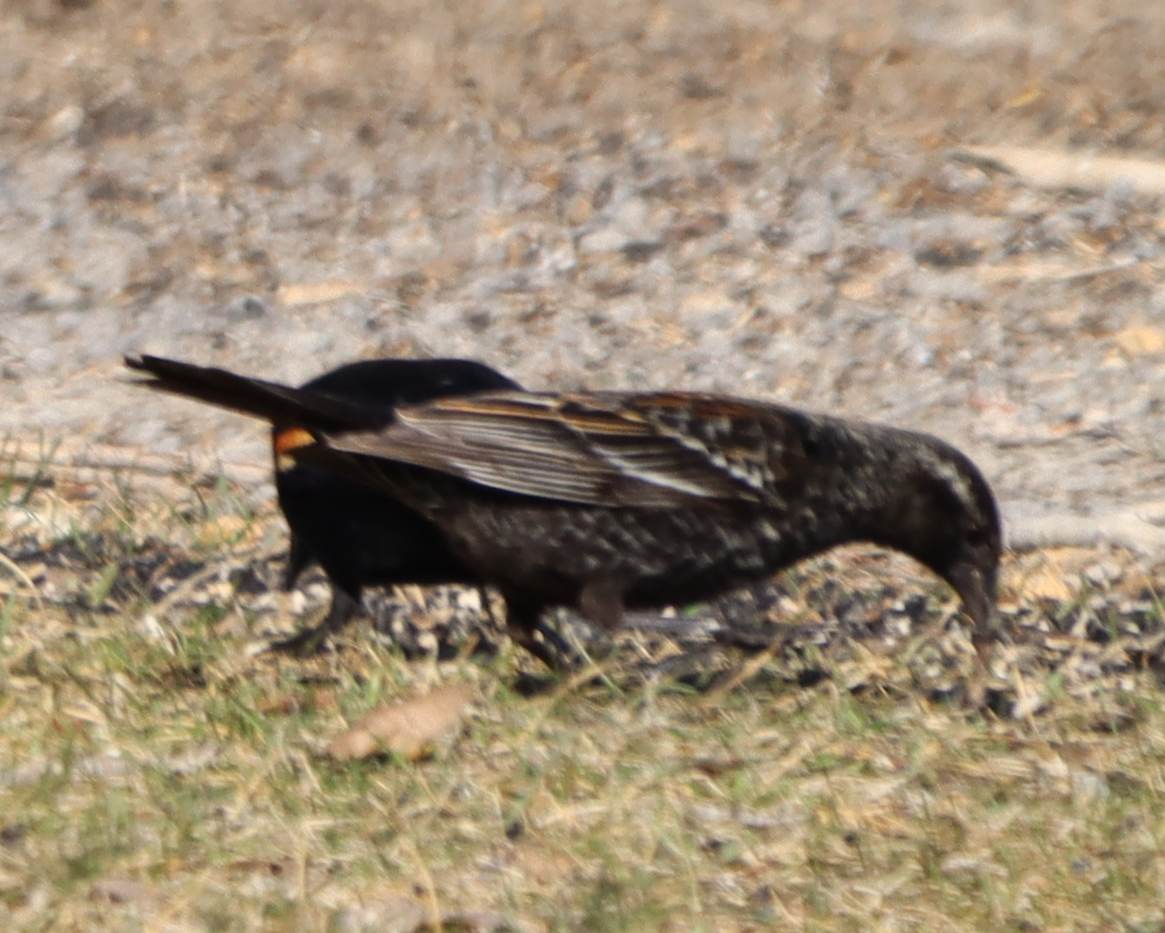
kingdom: Animalia
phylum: Chordata
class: Aves
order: Passeriformes
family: Icteridae
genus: Agelaius
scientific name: Agelaius phoeniceus
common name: Red-winged blackbird
